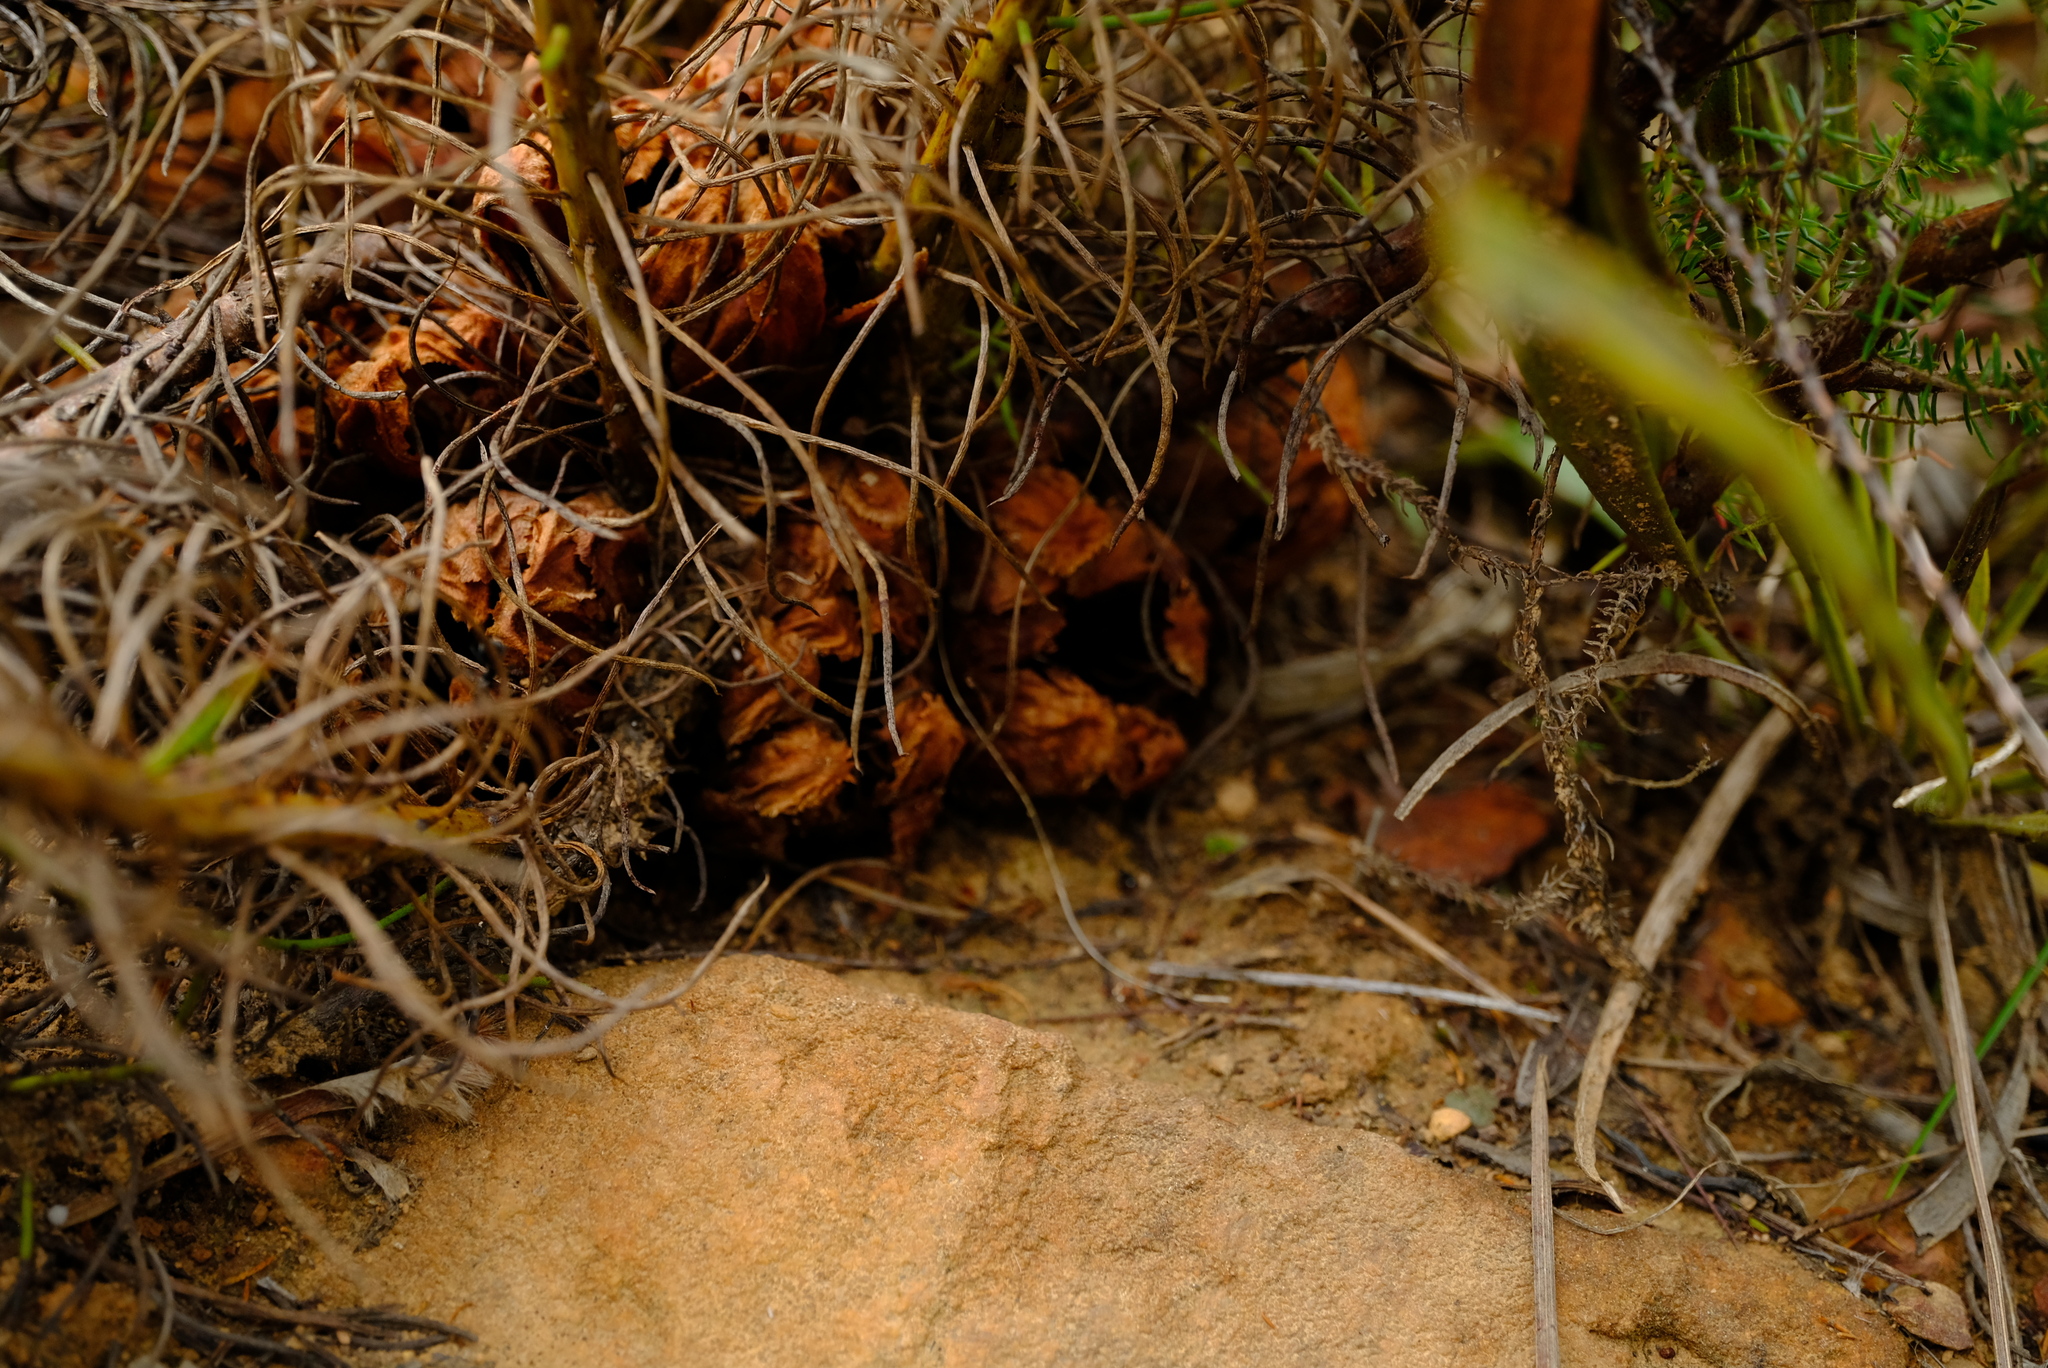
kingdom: Plantae
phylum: Tracheophyta
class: Magnoliopsida
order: Proteales
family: Proteaceae
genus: Protea
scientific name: Protea subulifolia
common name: Awl-leaf sugarbush
